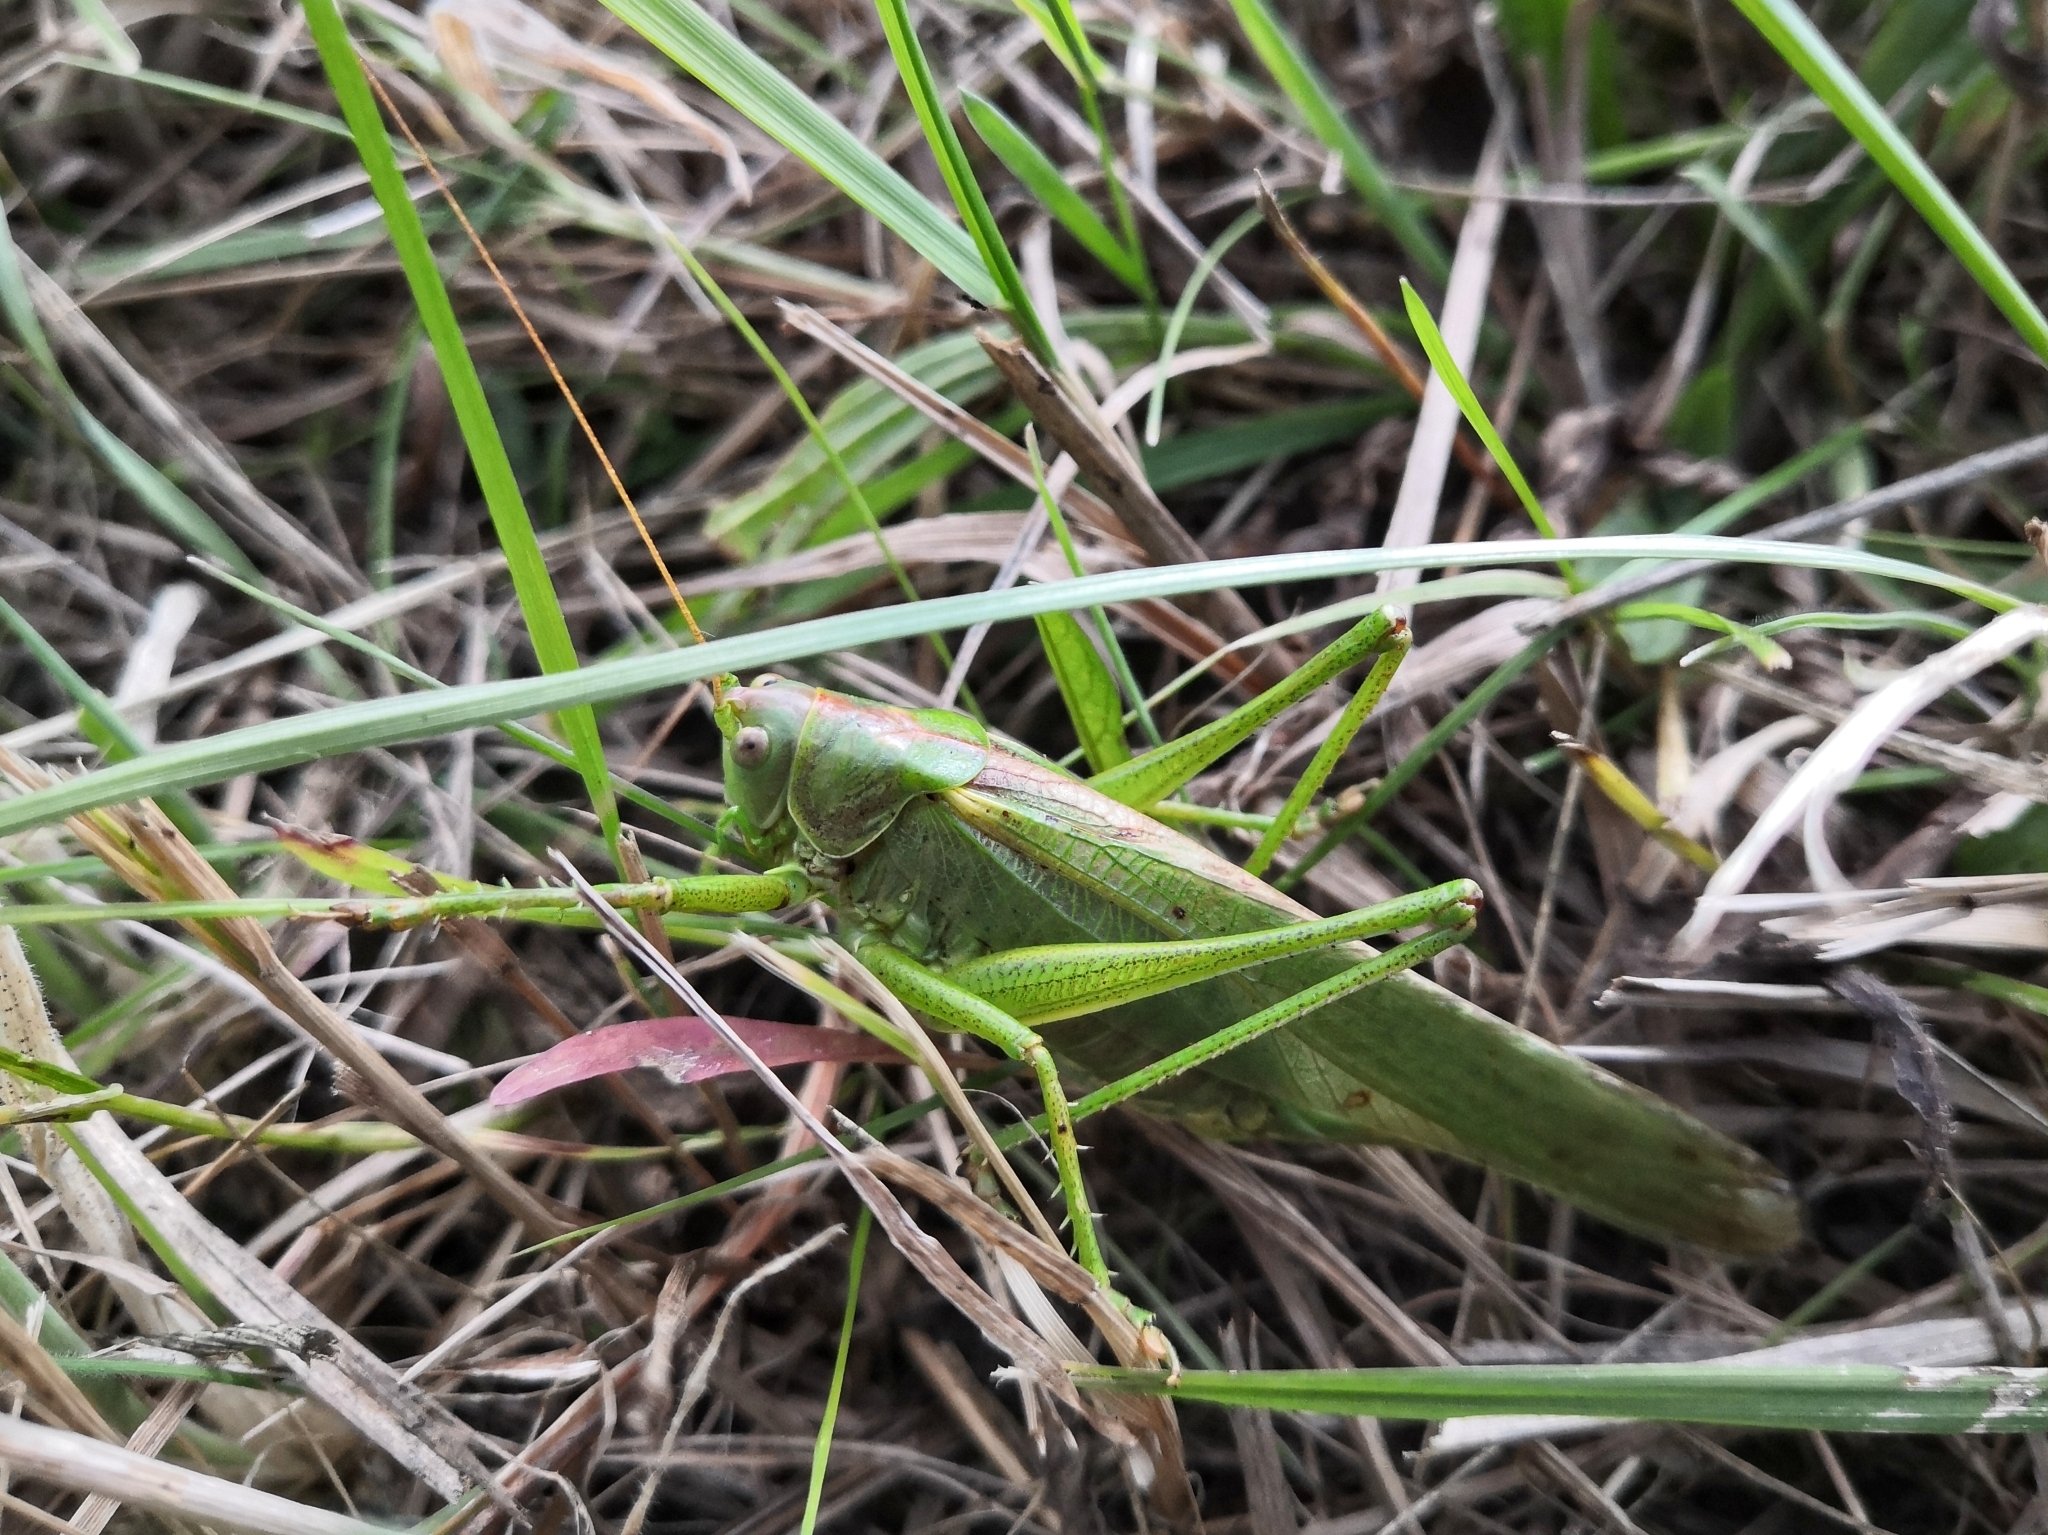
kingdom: Animalia
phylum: Arthropoda
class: Insecta
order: Orthoptera
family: Tettigoniidae
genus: Tettigonia
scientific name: Tettigonia viridissima
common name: Great green bush-cricket
